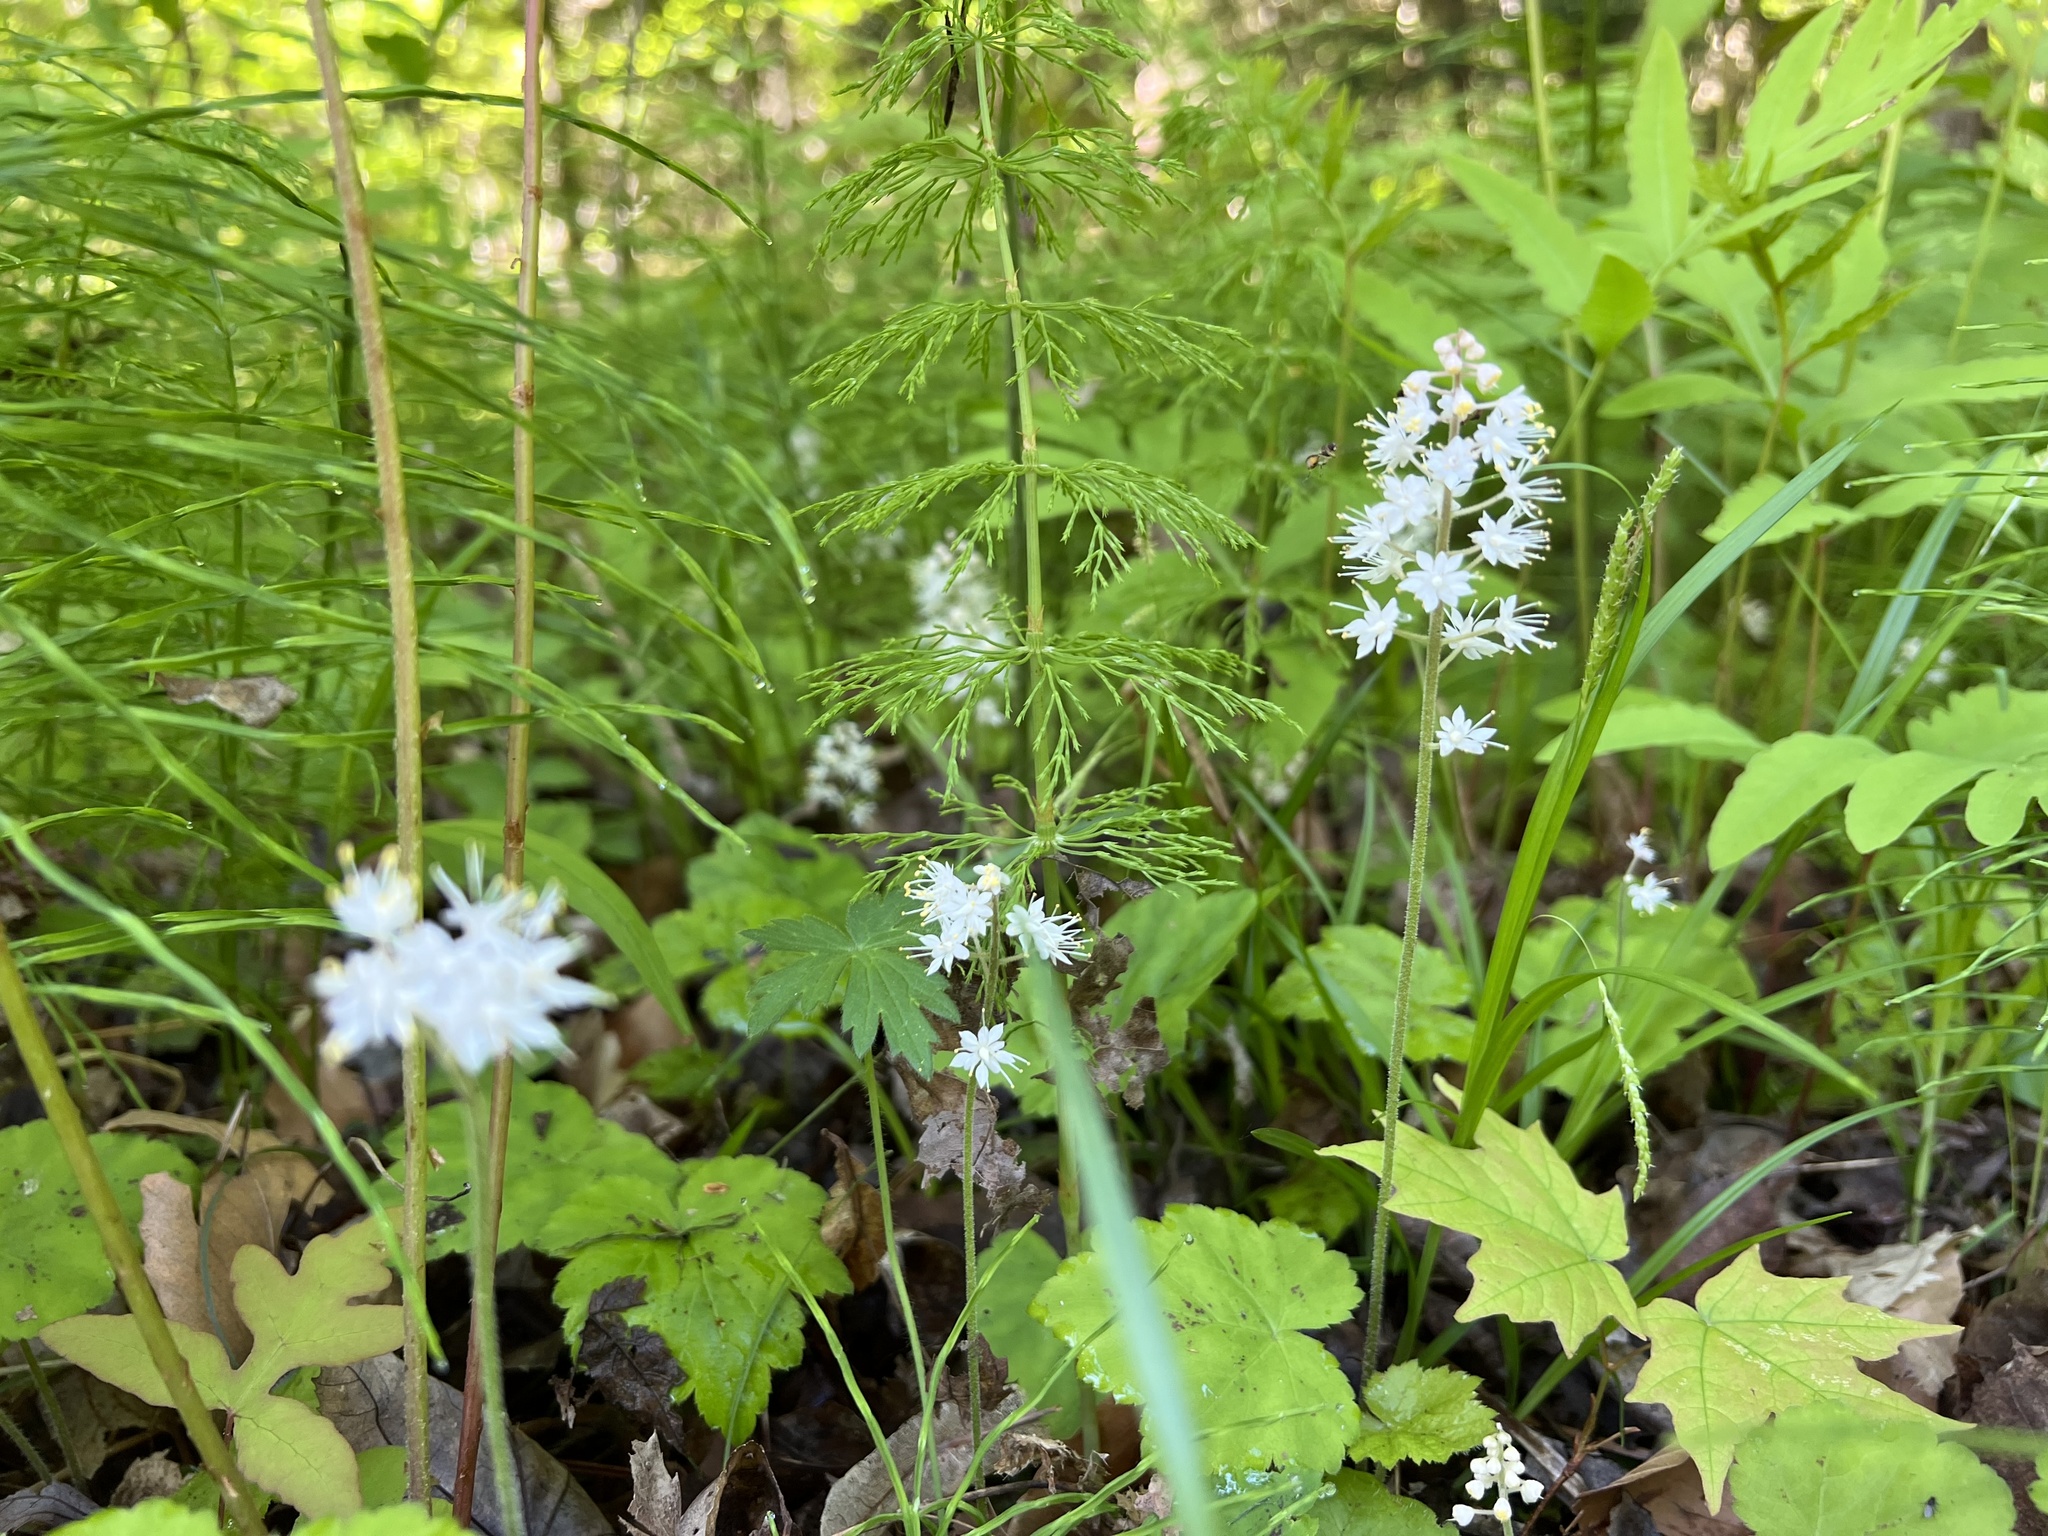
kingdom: Plantae
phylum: Tracheophyta
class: Magnoliopsida
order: Saxifragales
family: Saxifragaceae
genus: Tiarella
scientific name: Tiarella stolonifera
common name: Stoloniferous foamflower
